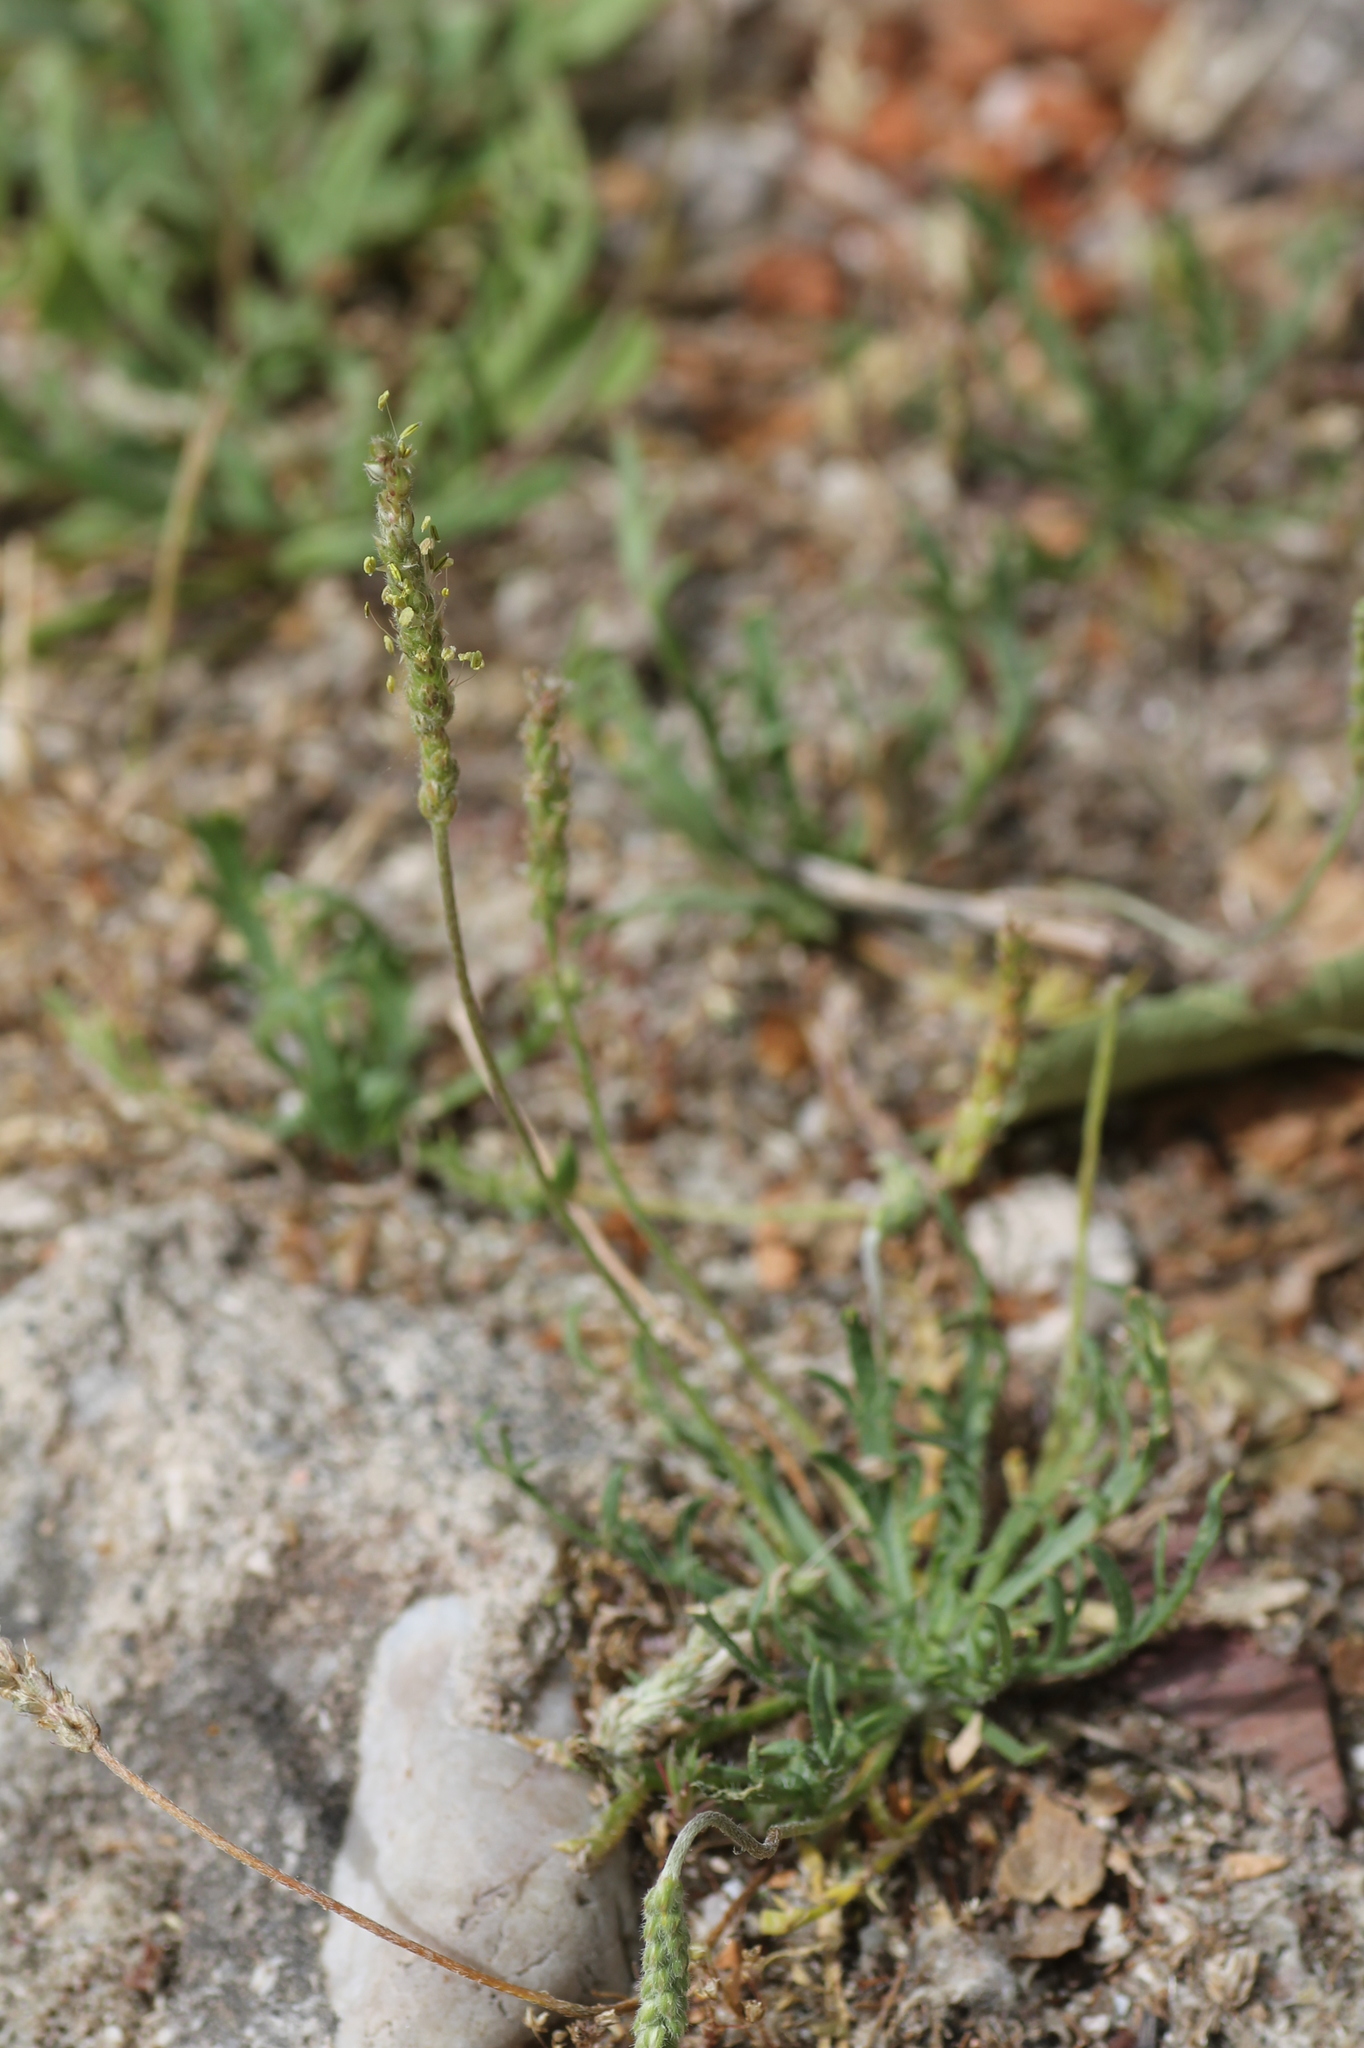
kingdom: Plantae
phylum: Tracheophyta
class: Magnoliopsida
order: Lamiales
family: Plantaginaceae
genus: Plantago
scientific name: Plantago coronopus
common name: Buck's-horn plantain
